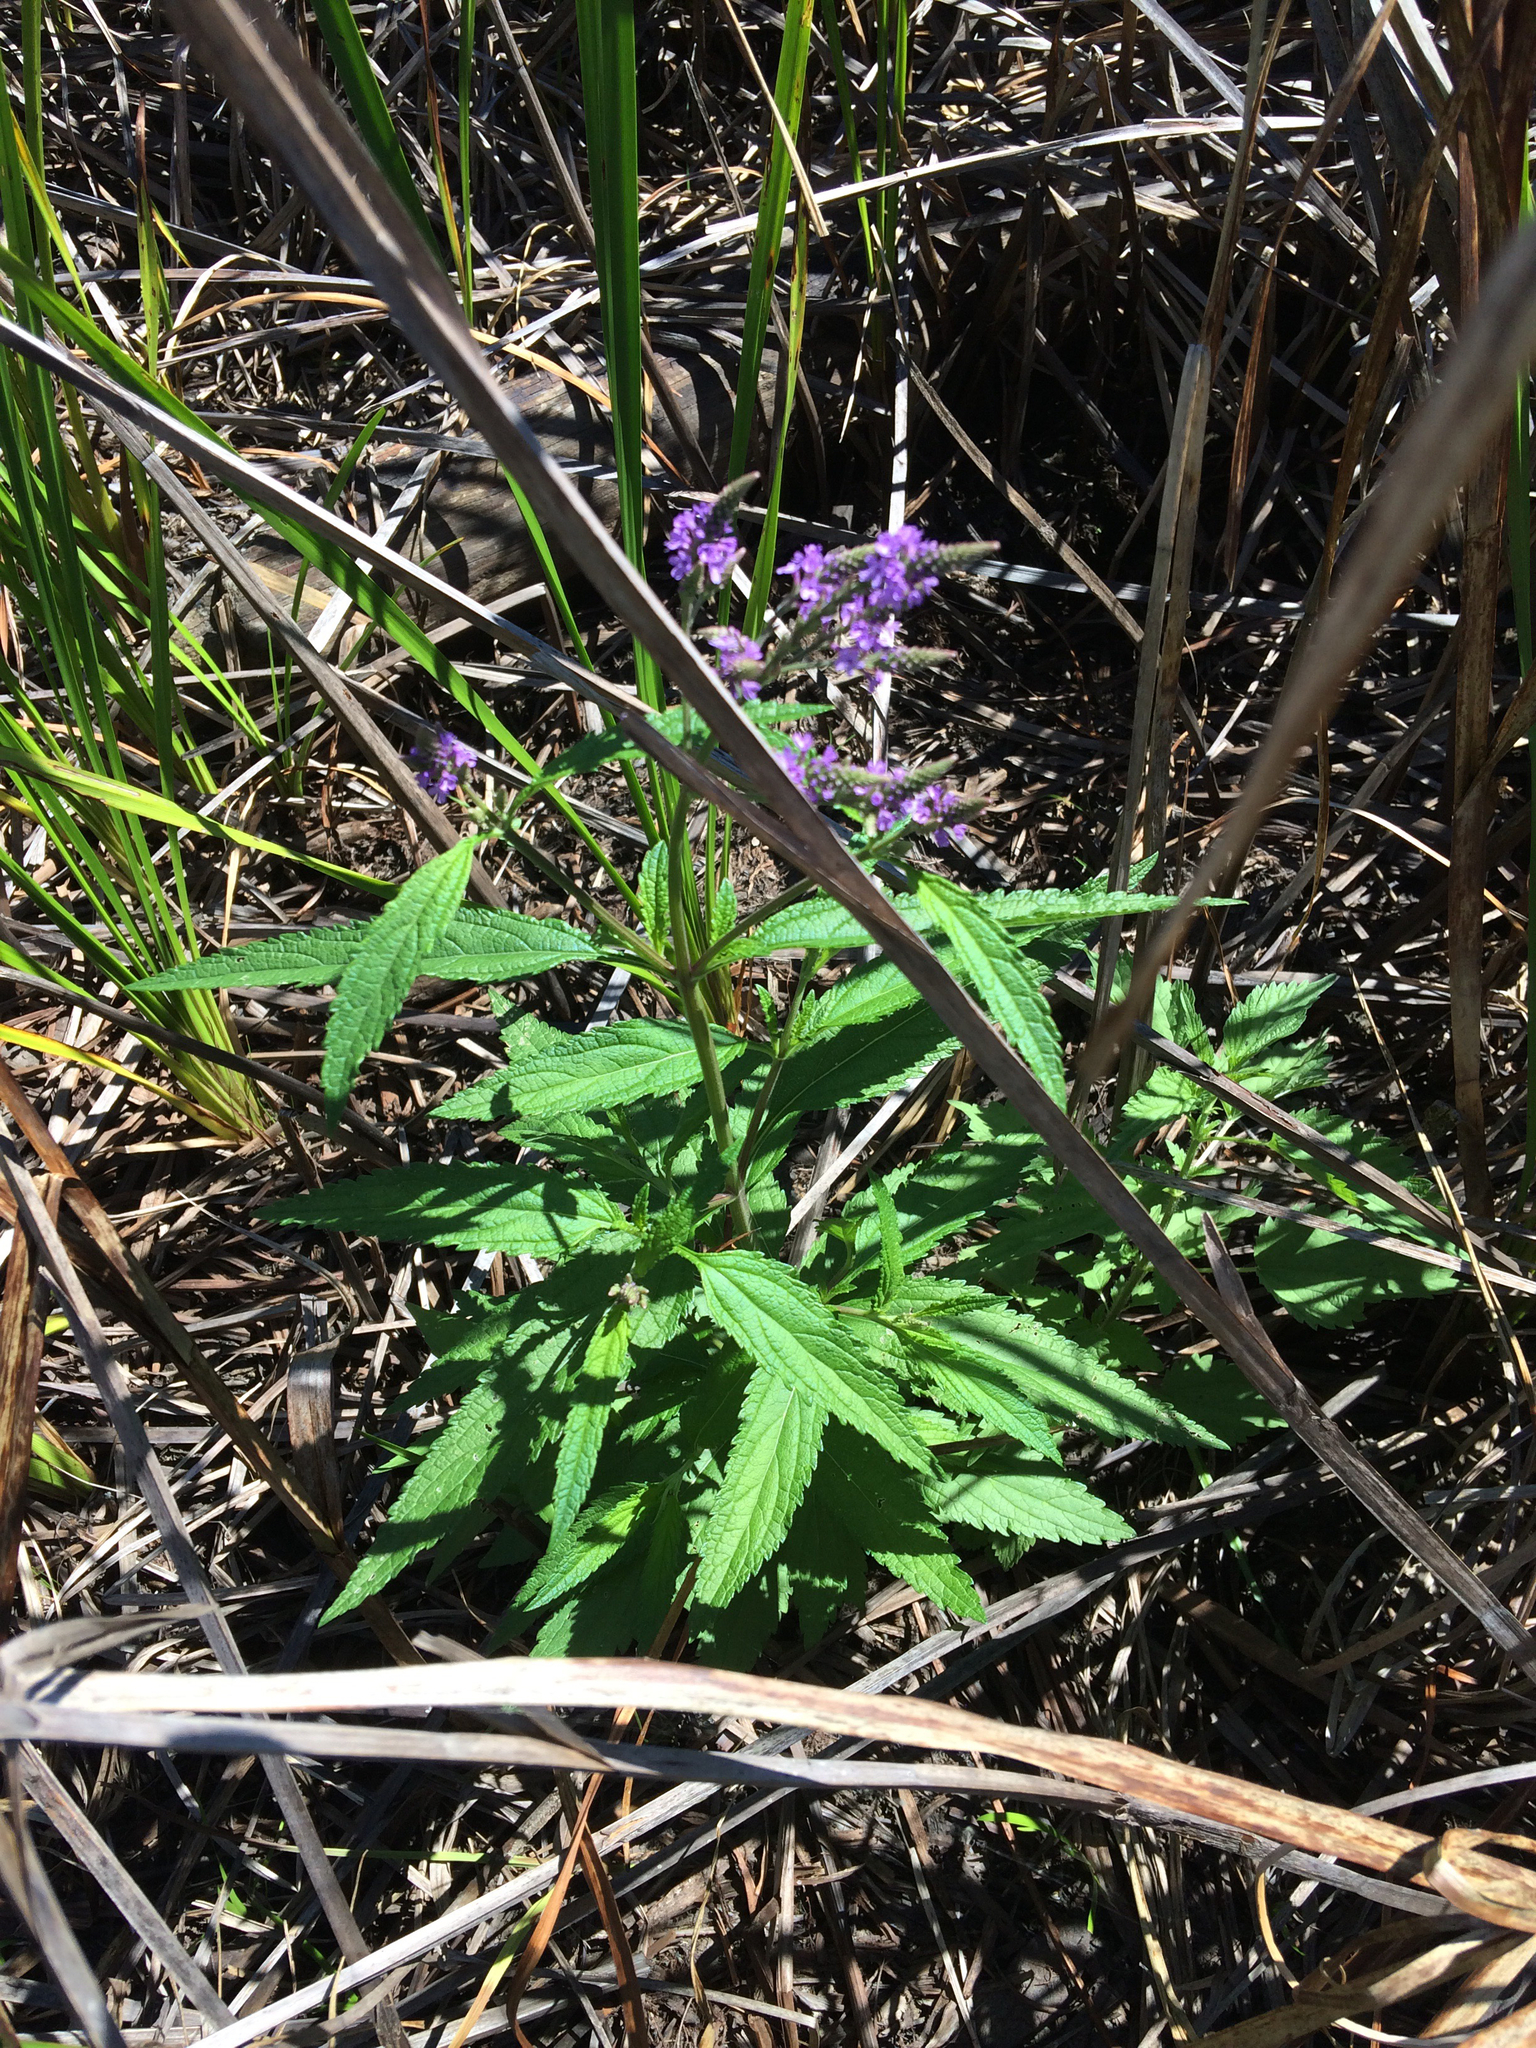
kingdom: Plantae
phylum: Tracheophyta
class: Magnoliopsida
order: Lamiales
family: Verbenaceae
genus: Verbena
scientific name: Verbena hastata
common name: American blue vervain
